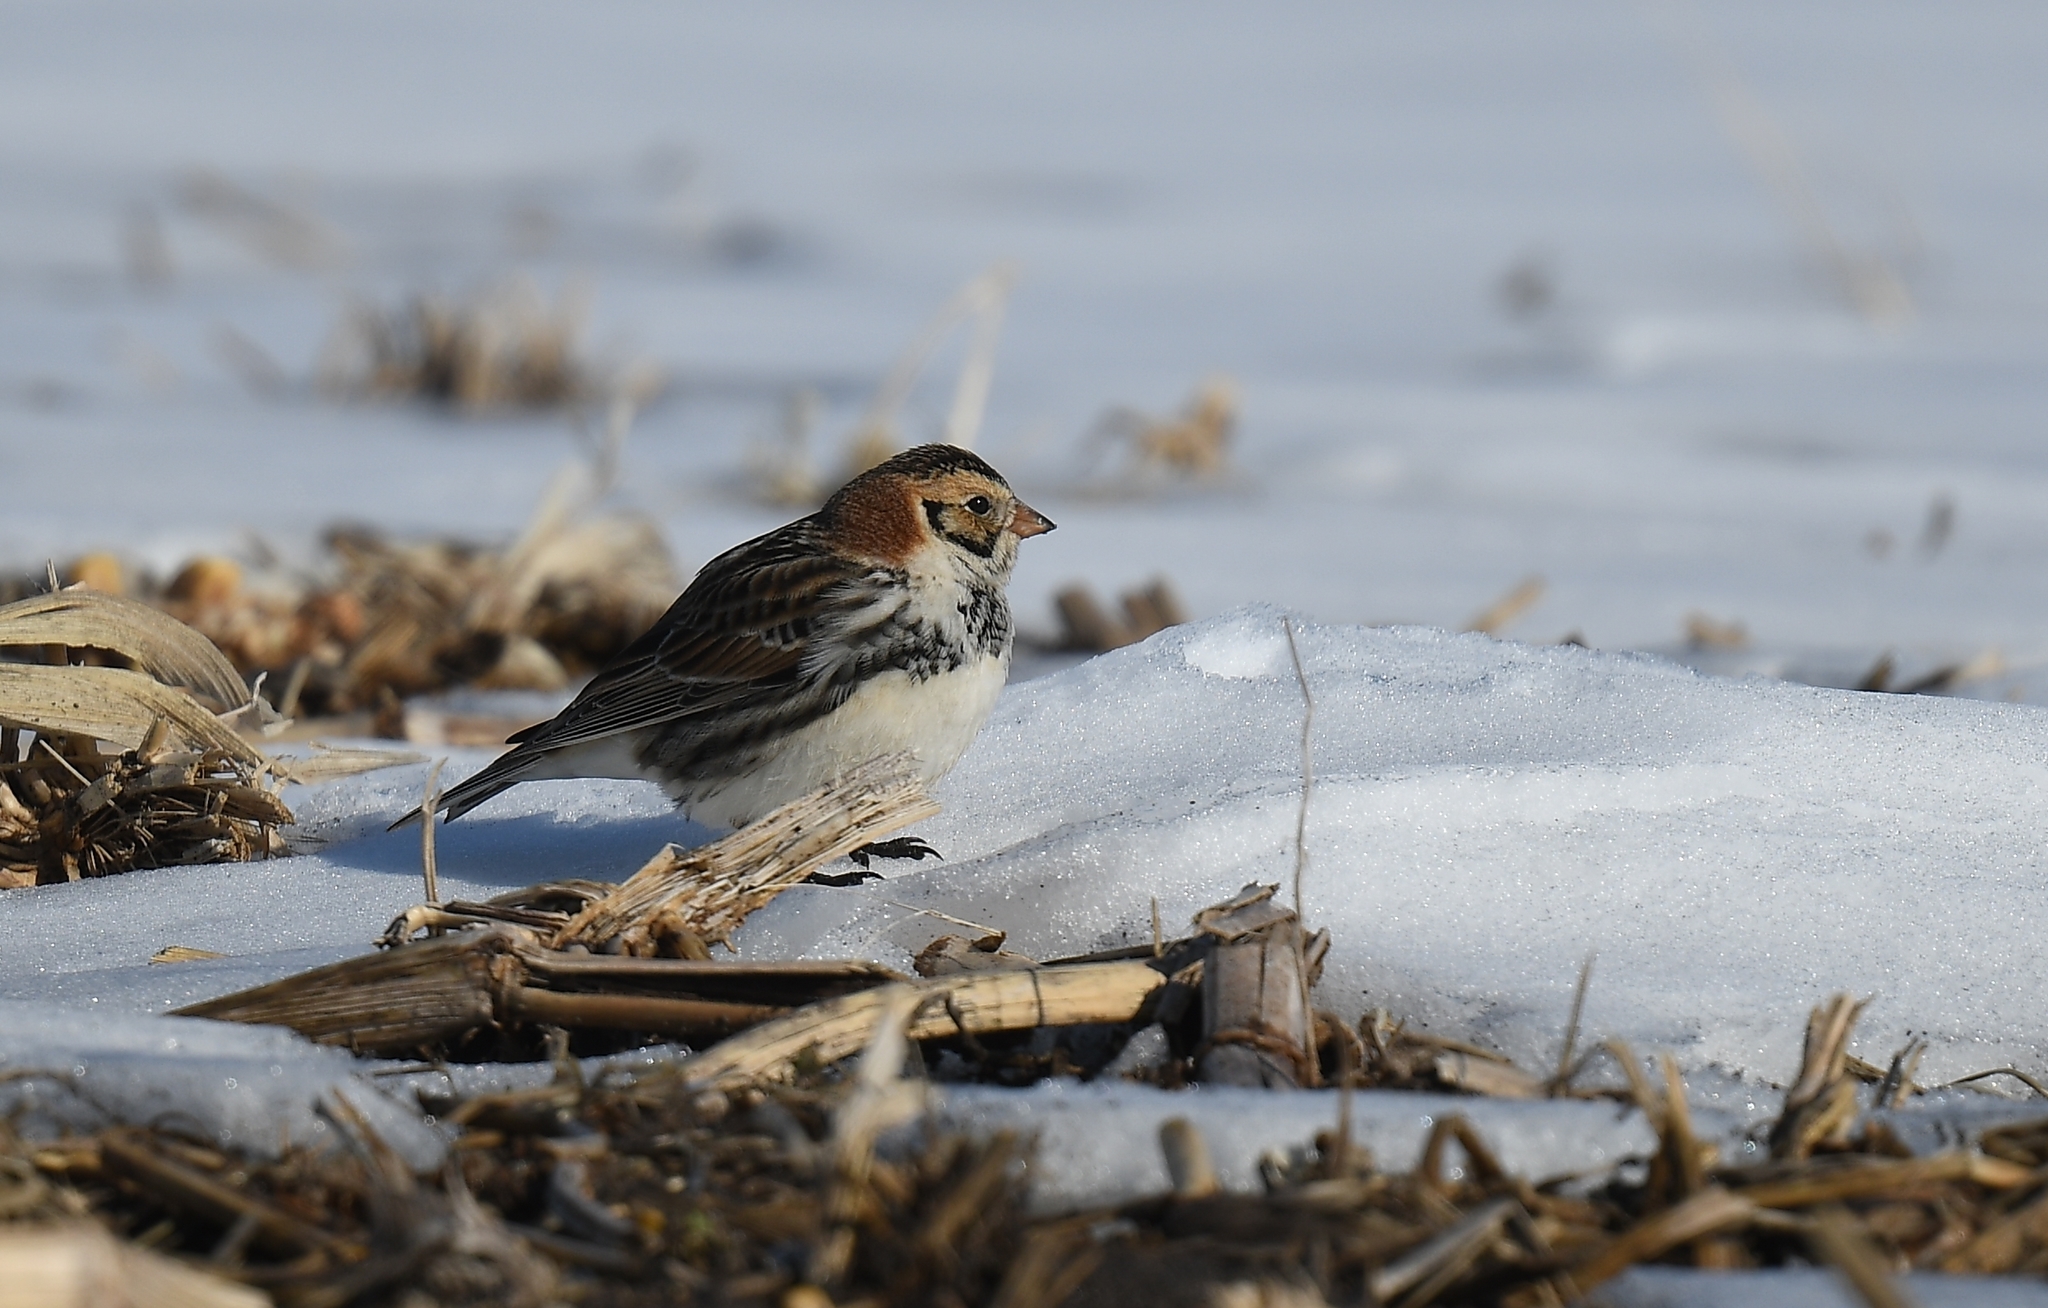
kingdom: Animalia
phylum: Chordata
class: Aves
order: Passeriformes
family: Calcariidae
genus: Calcarius
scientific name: Calcarius lapponicus
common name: Lapland longspur
